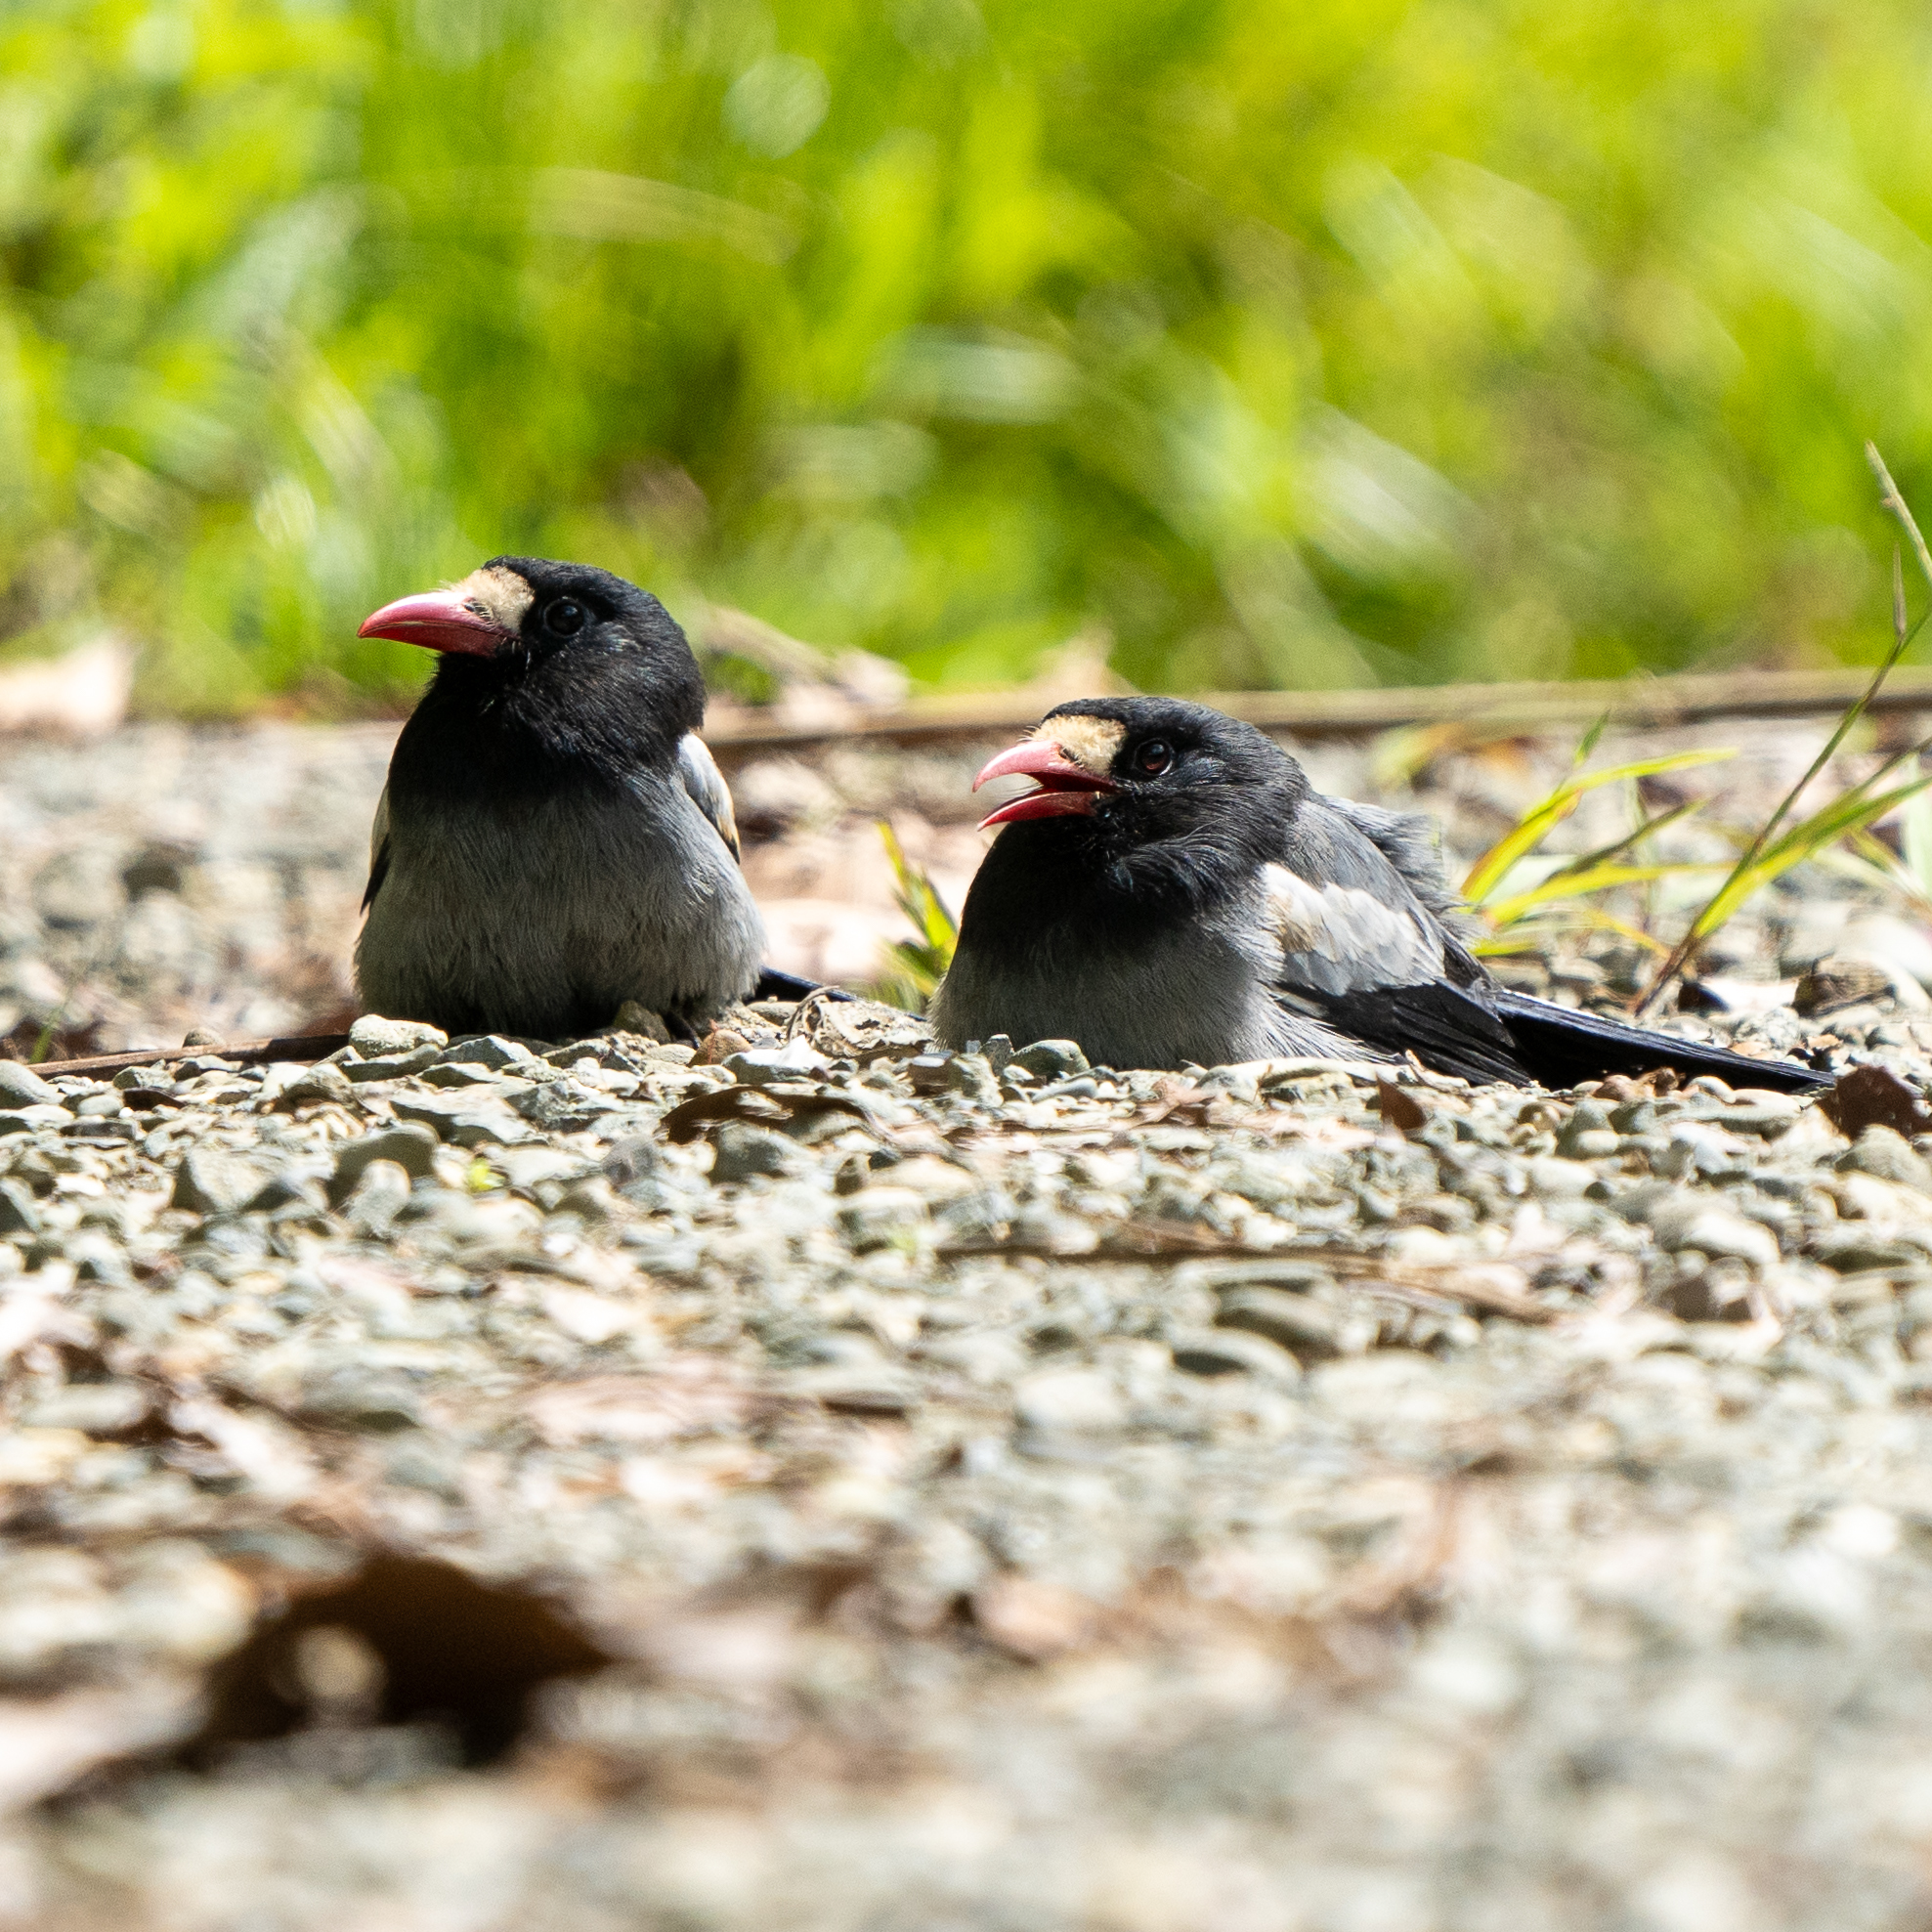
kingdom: Animalia
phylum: Chordata
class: Aves
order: Piciformes
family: Bucconidae
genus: Monasa
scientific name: Monasa morphoeus
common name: White-fronted nunbird
